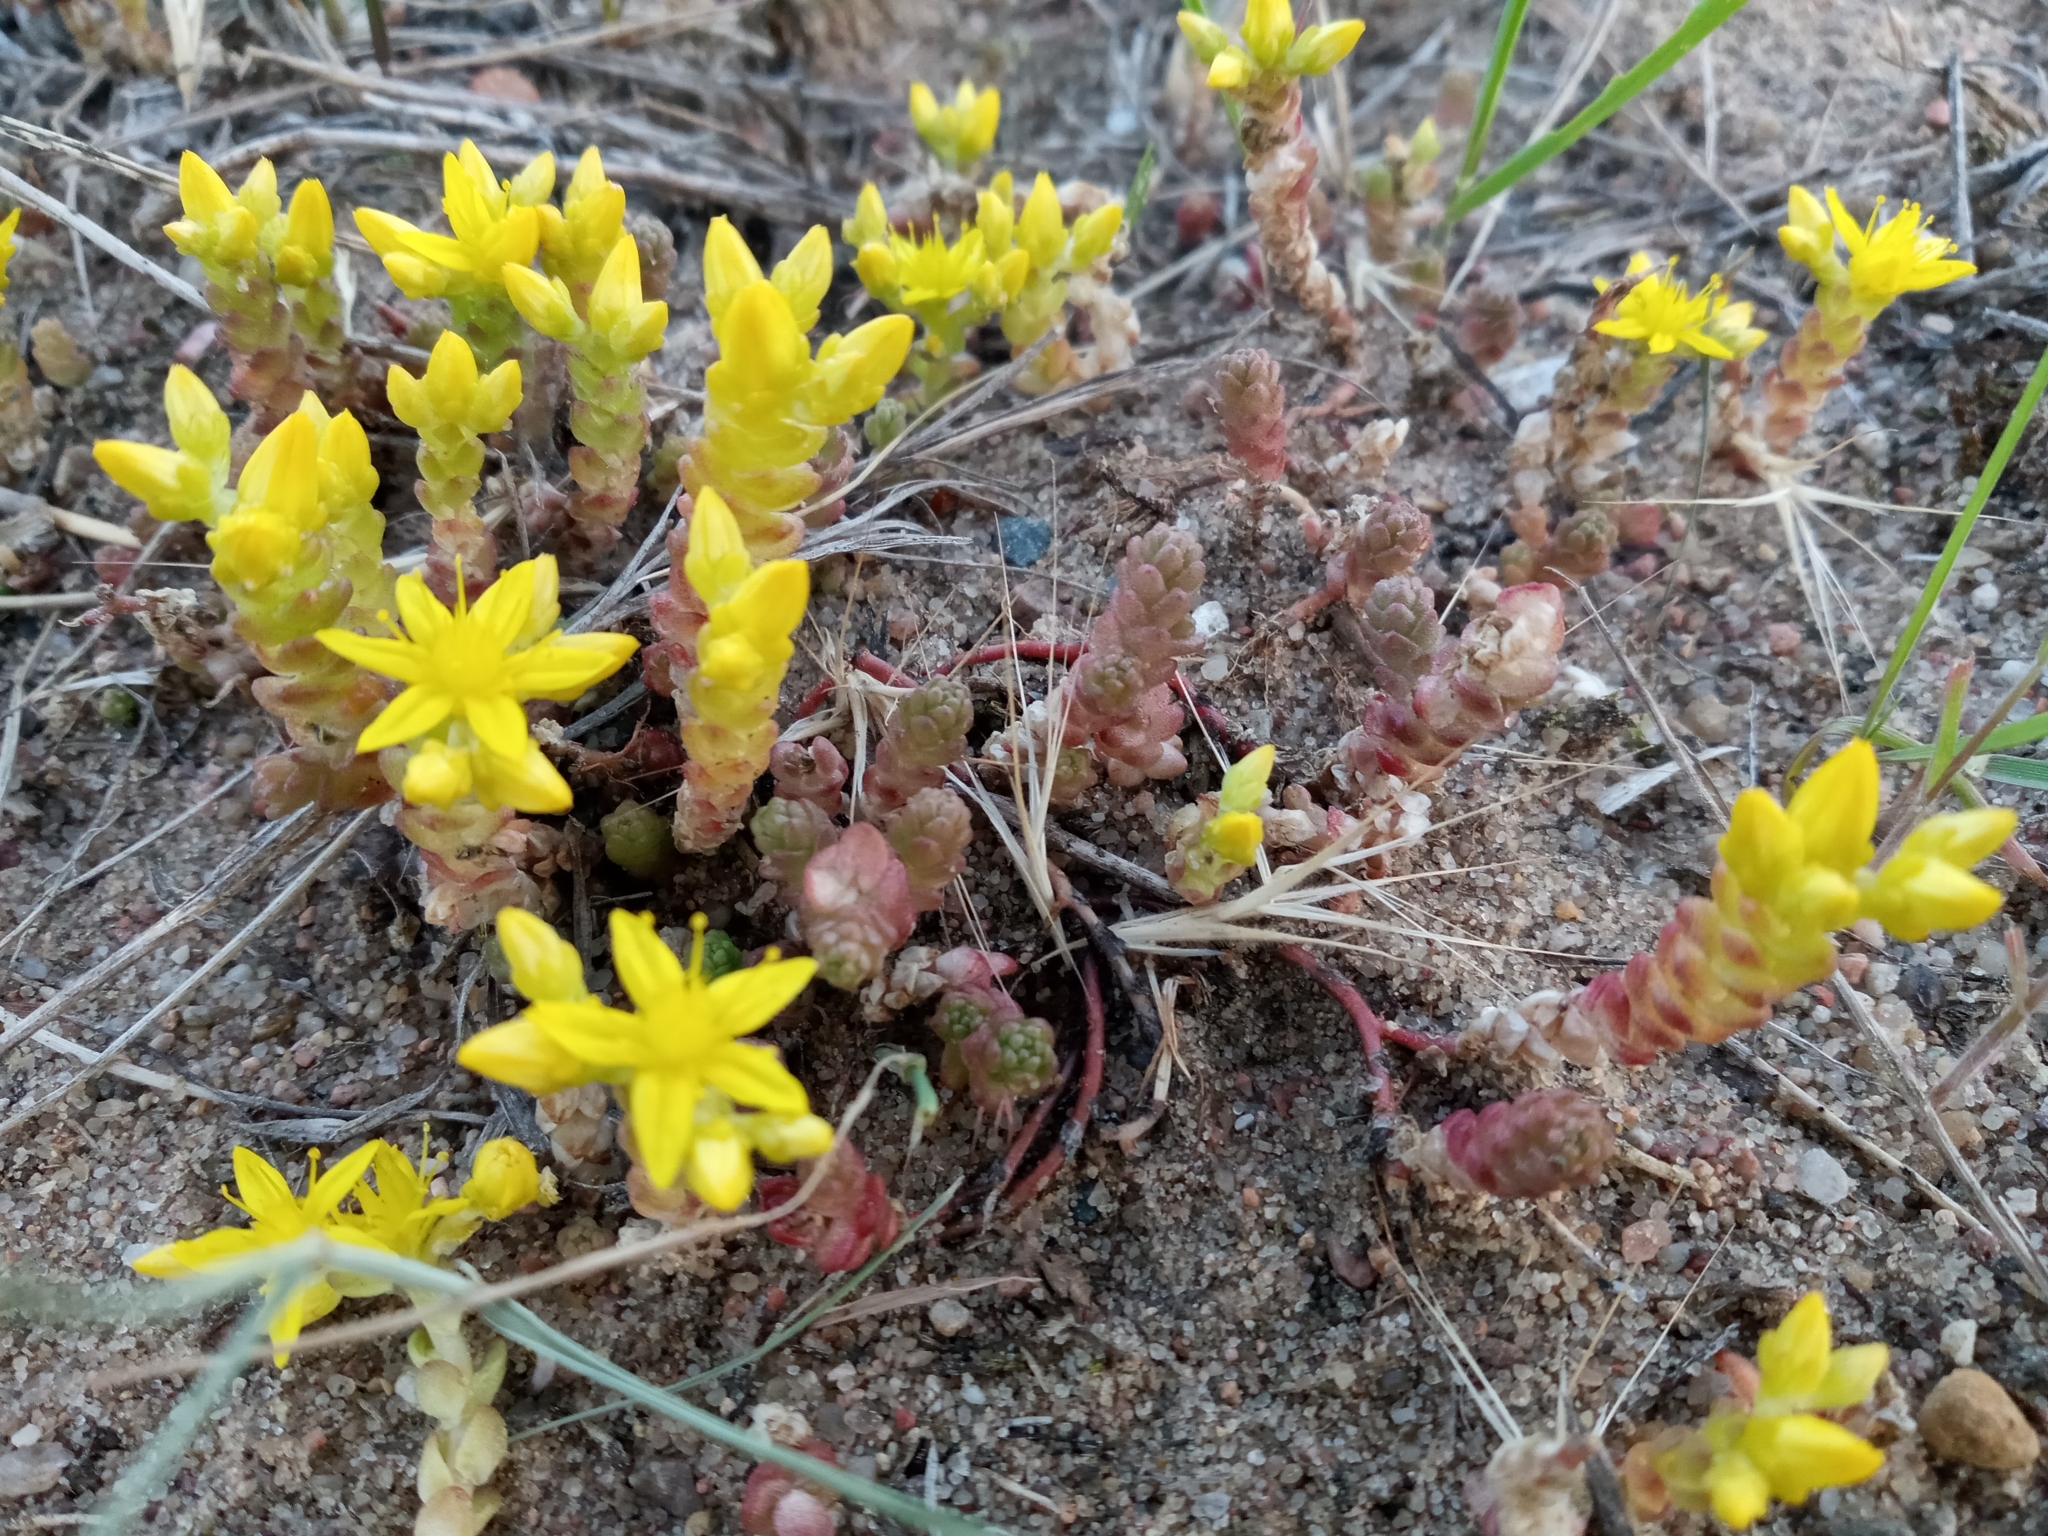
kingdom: Plantae
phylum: Tracheophyta
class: Magnoliopsida
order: Saxifragales
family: Crassulaceae
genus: Sedum
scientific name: Sedum acre
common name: Biting stonecrop
